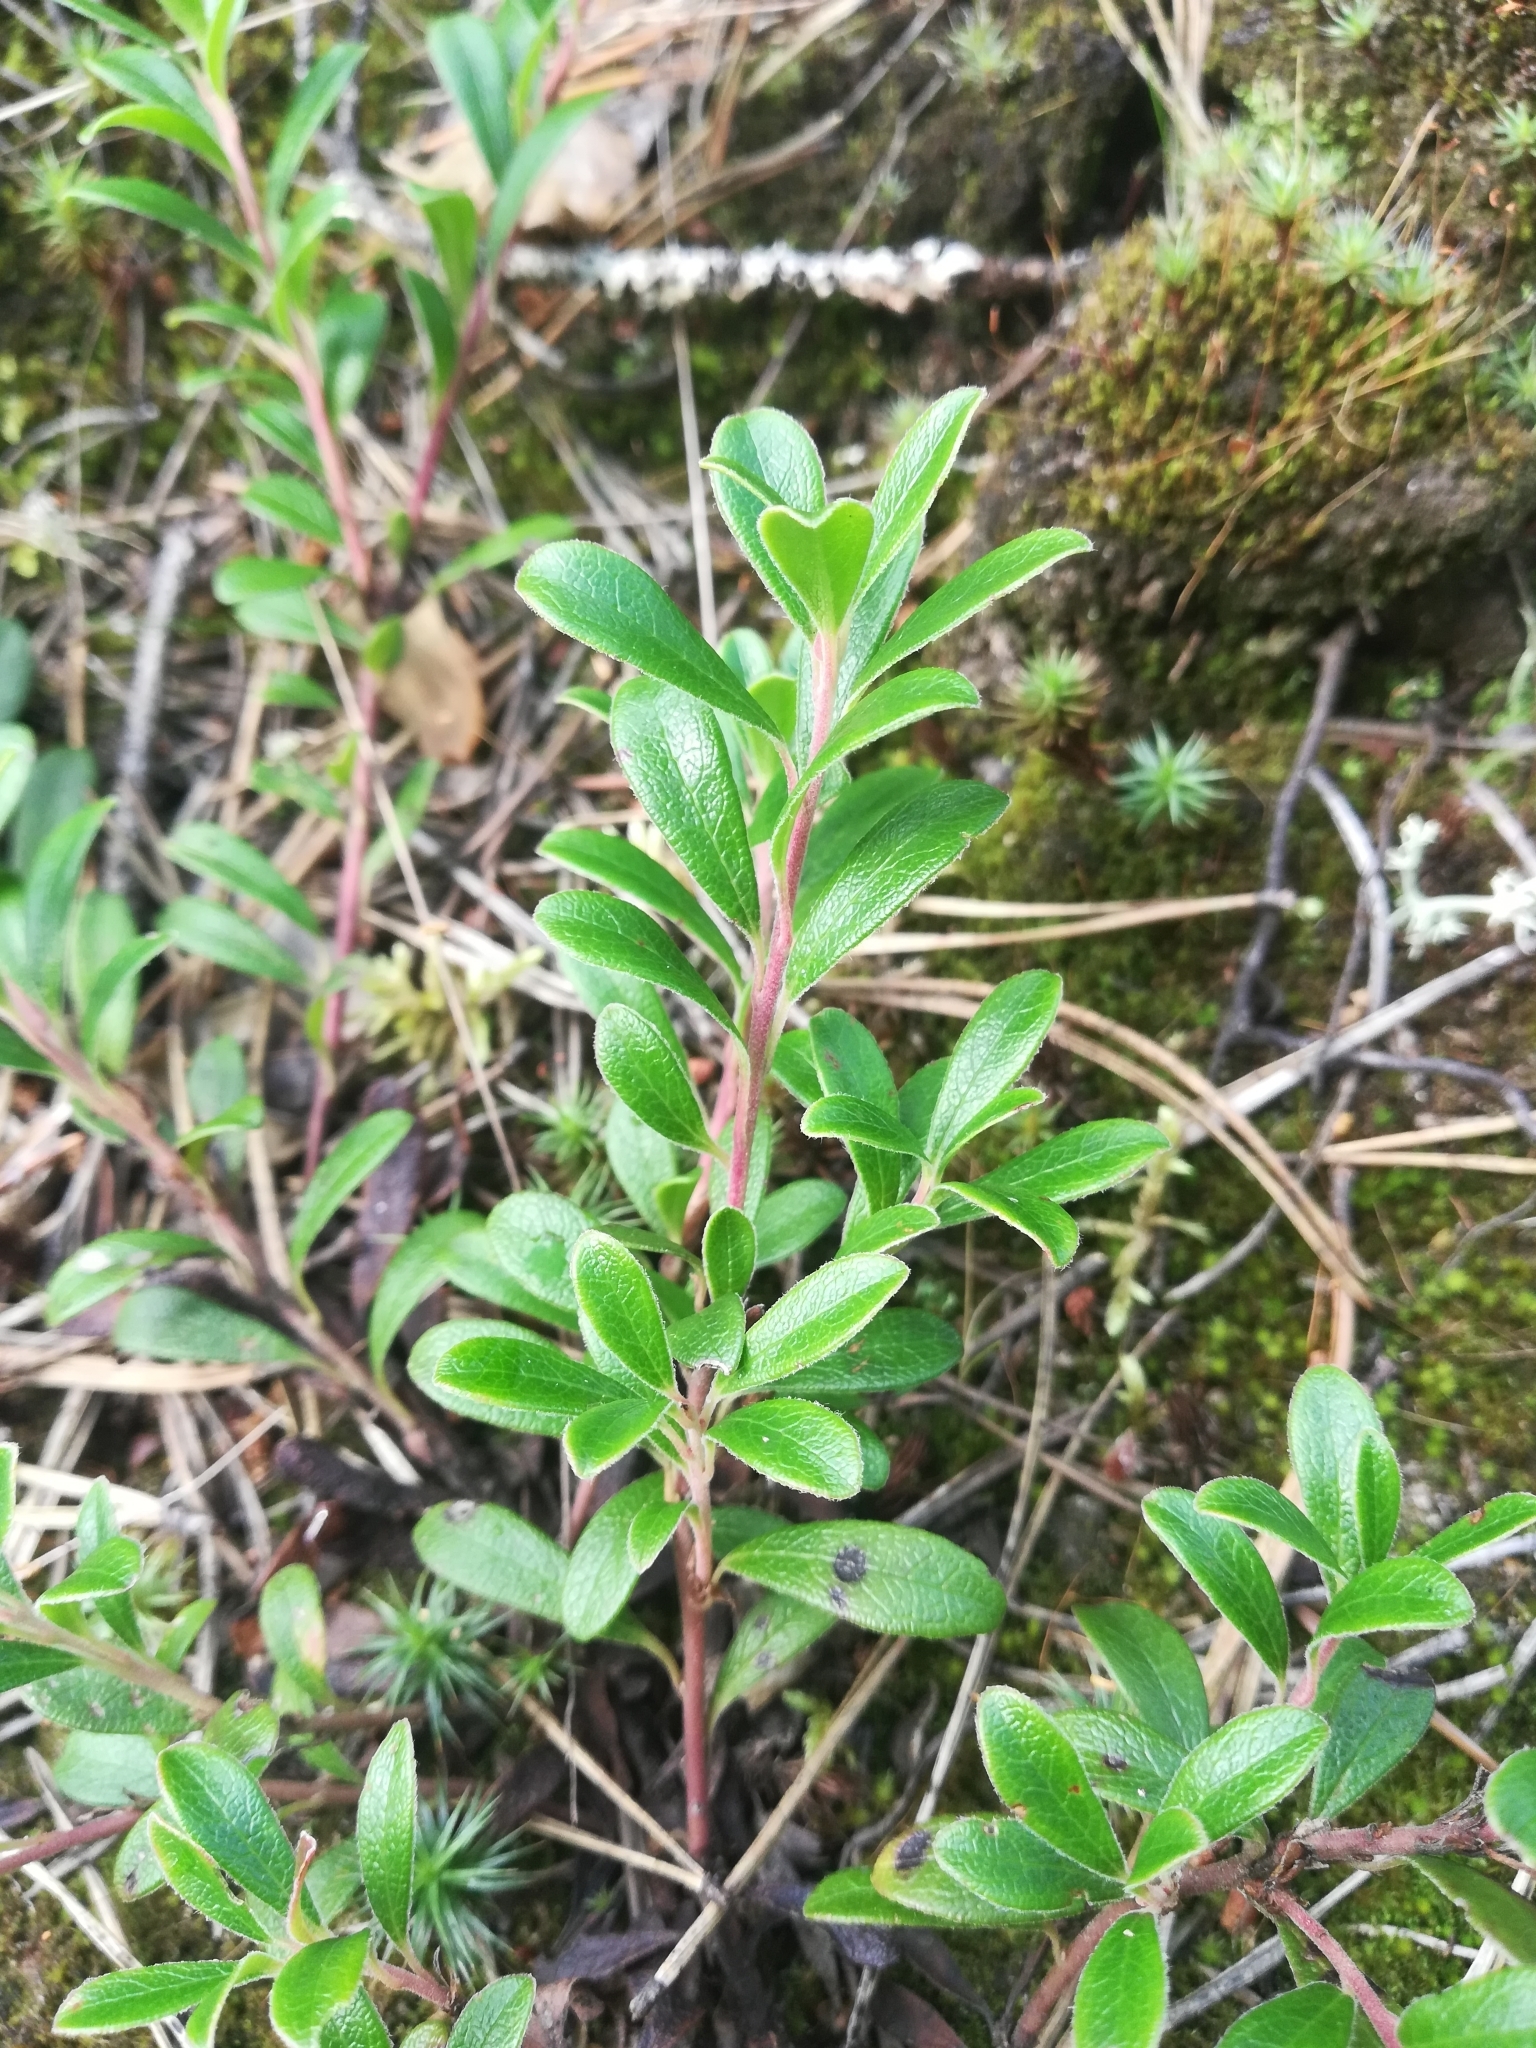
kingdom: Plantae
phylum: Tracheophyta
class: Magnoliopsida
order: Ericales
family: Ericaceae
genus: Arctostaphylos
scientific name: Arctostaphylos uva-ursi
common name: Bearberry
